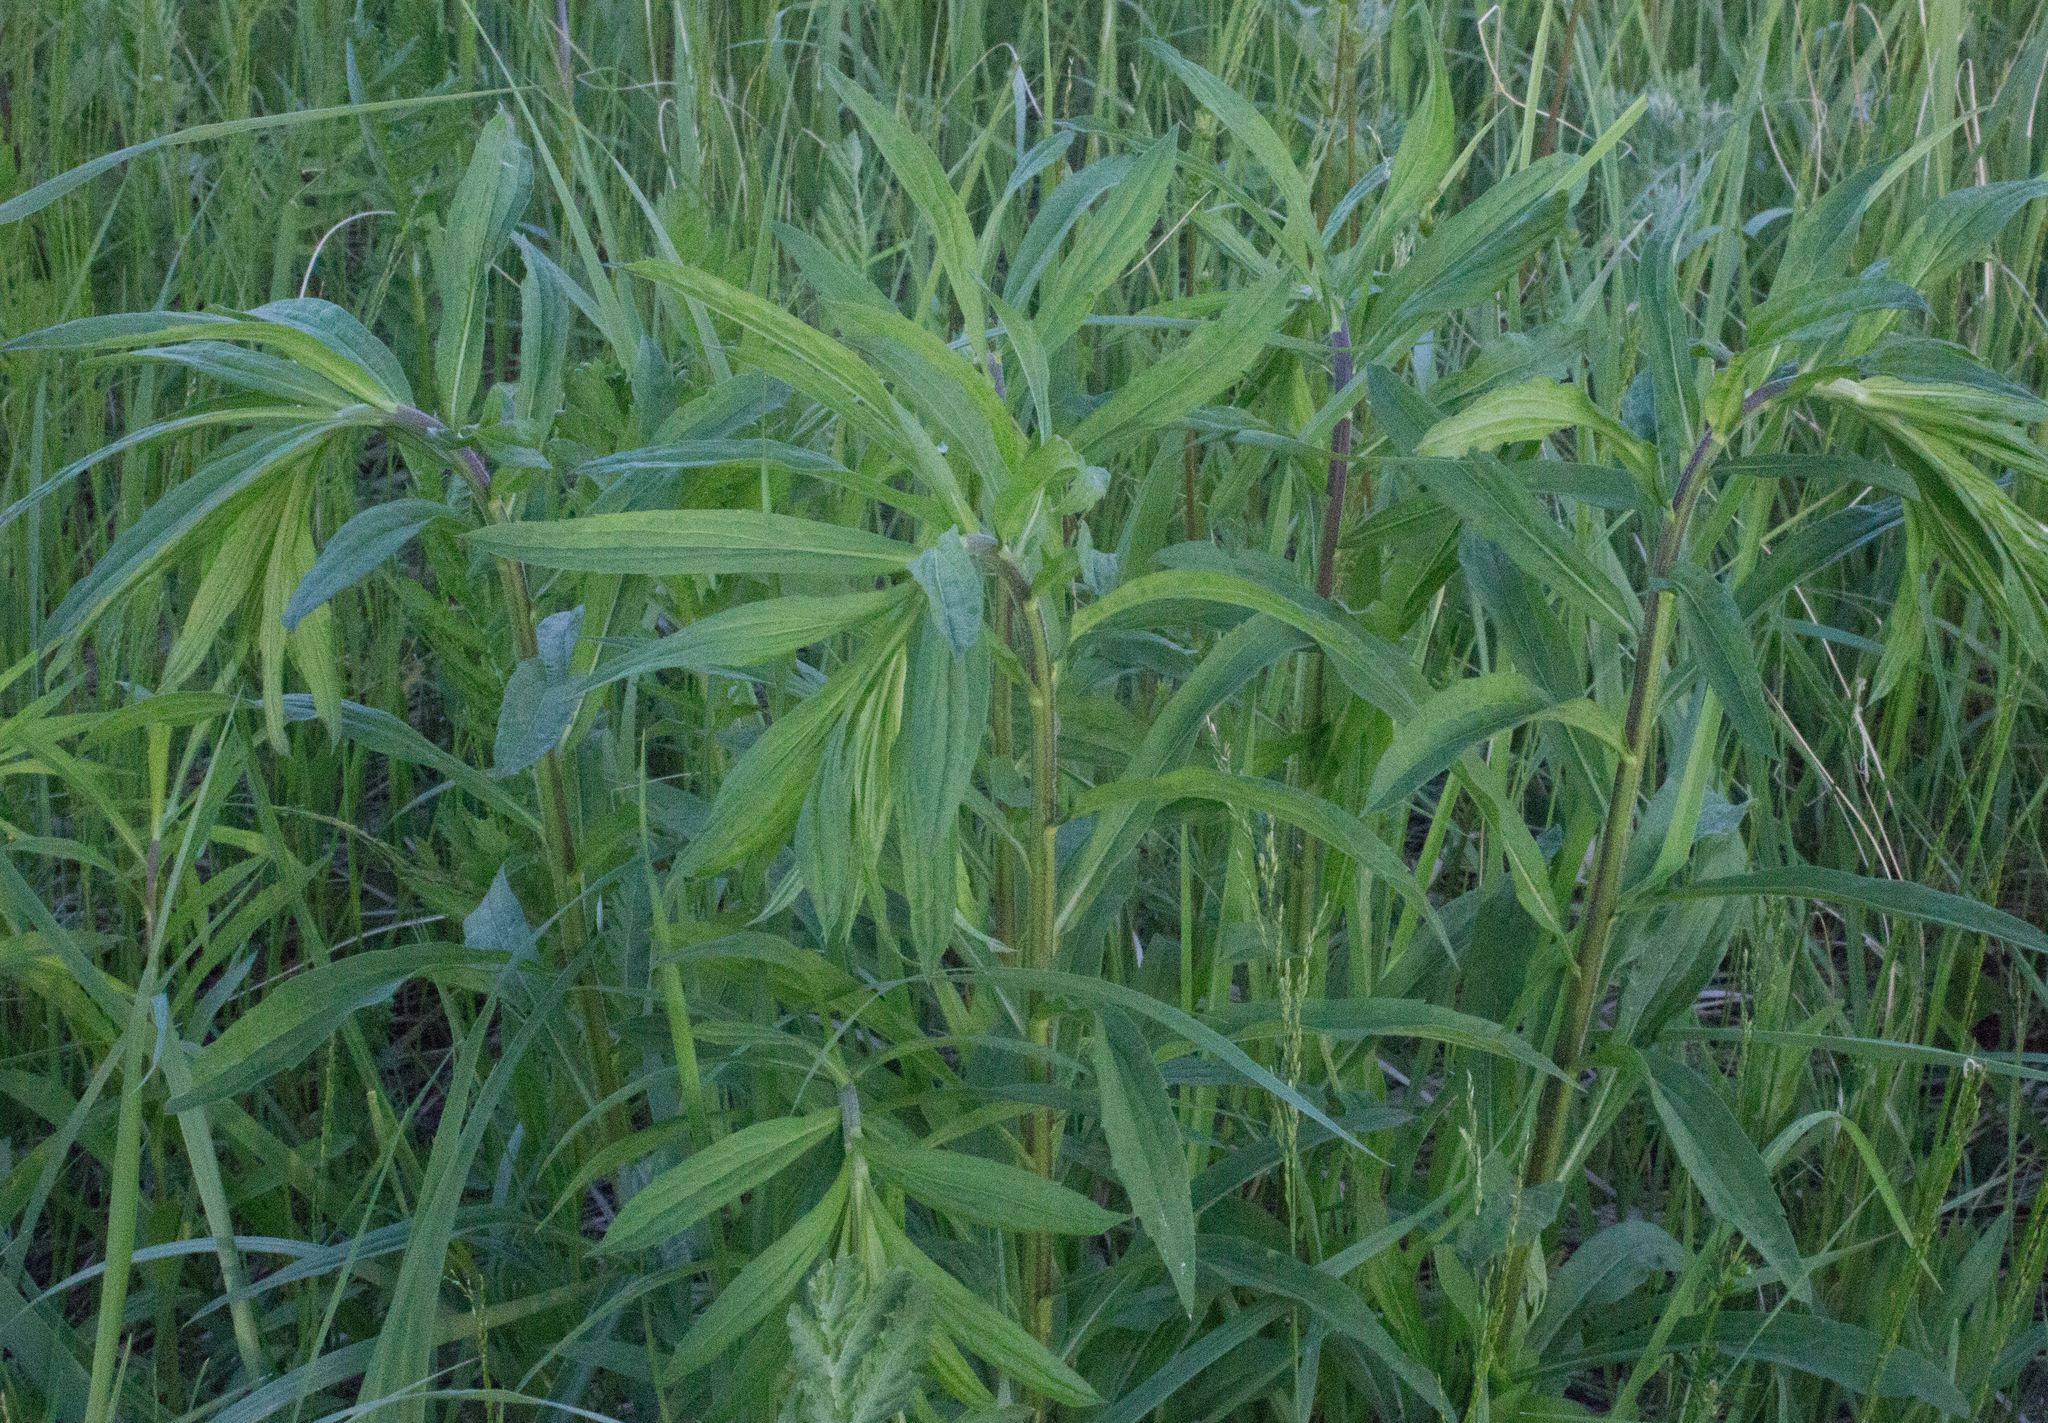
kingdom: Plantae
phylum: Tracheophyta
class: Magnoliopsida
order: Asterales
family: Asteraceae
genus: Solidago
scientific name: Solidago canadensis
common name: Canada goldenrod
